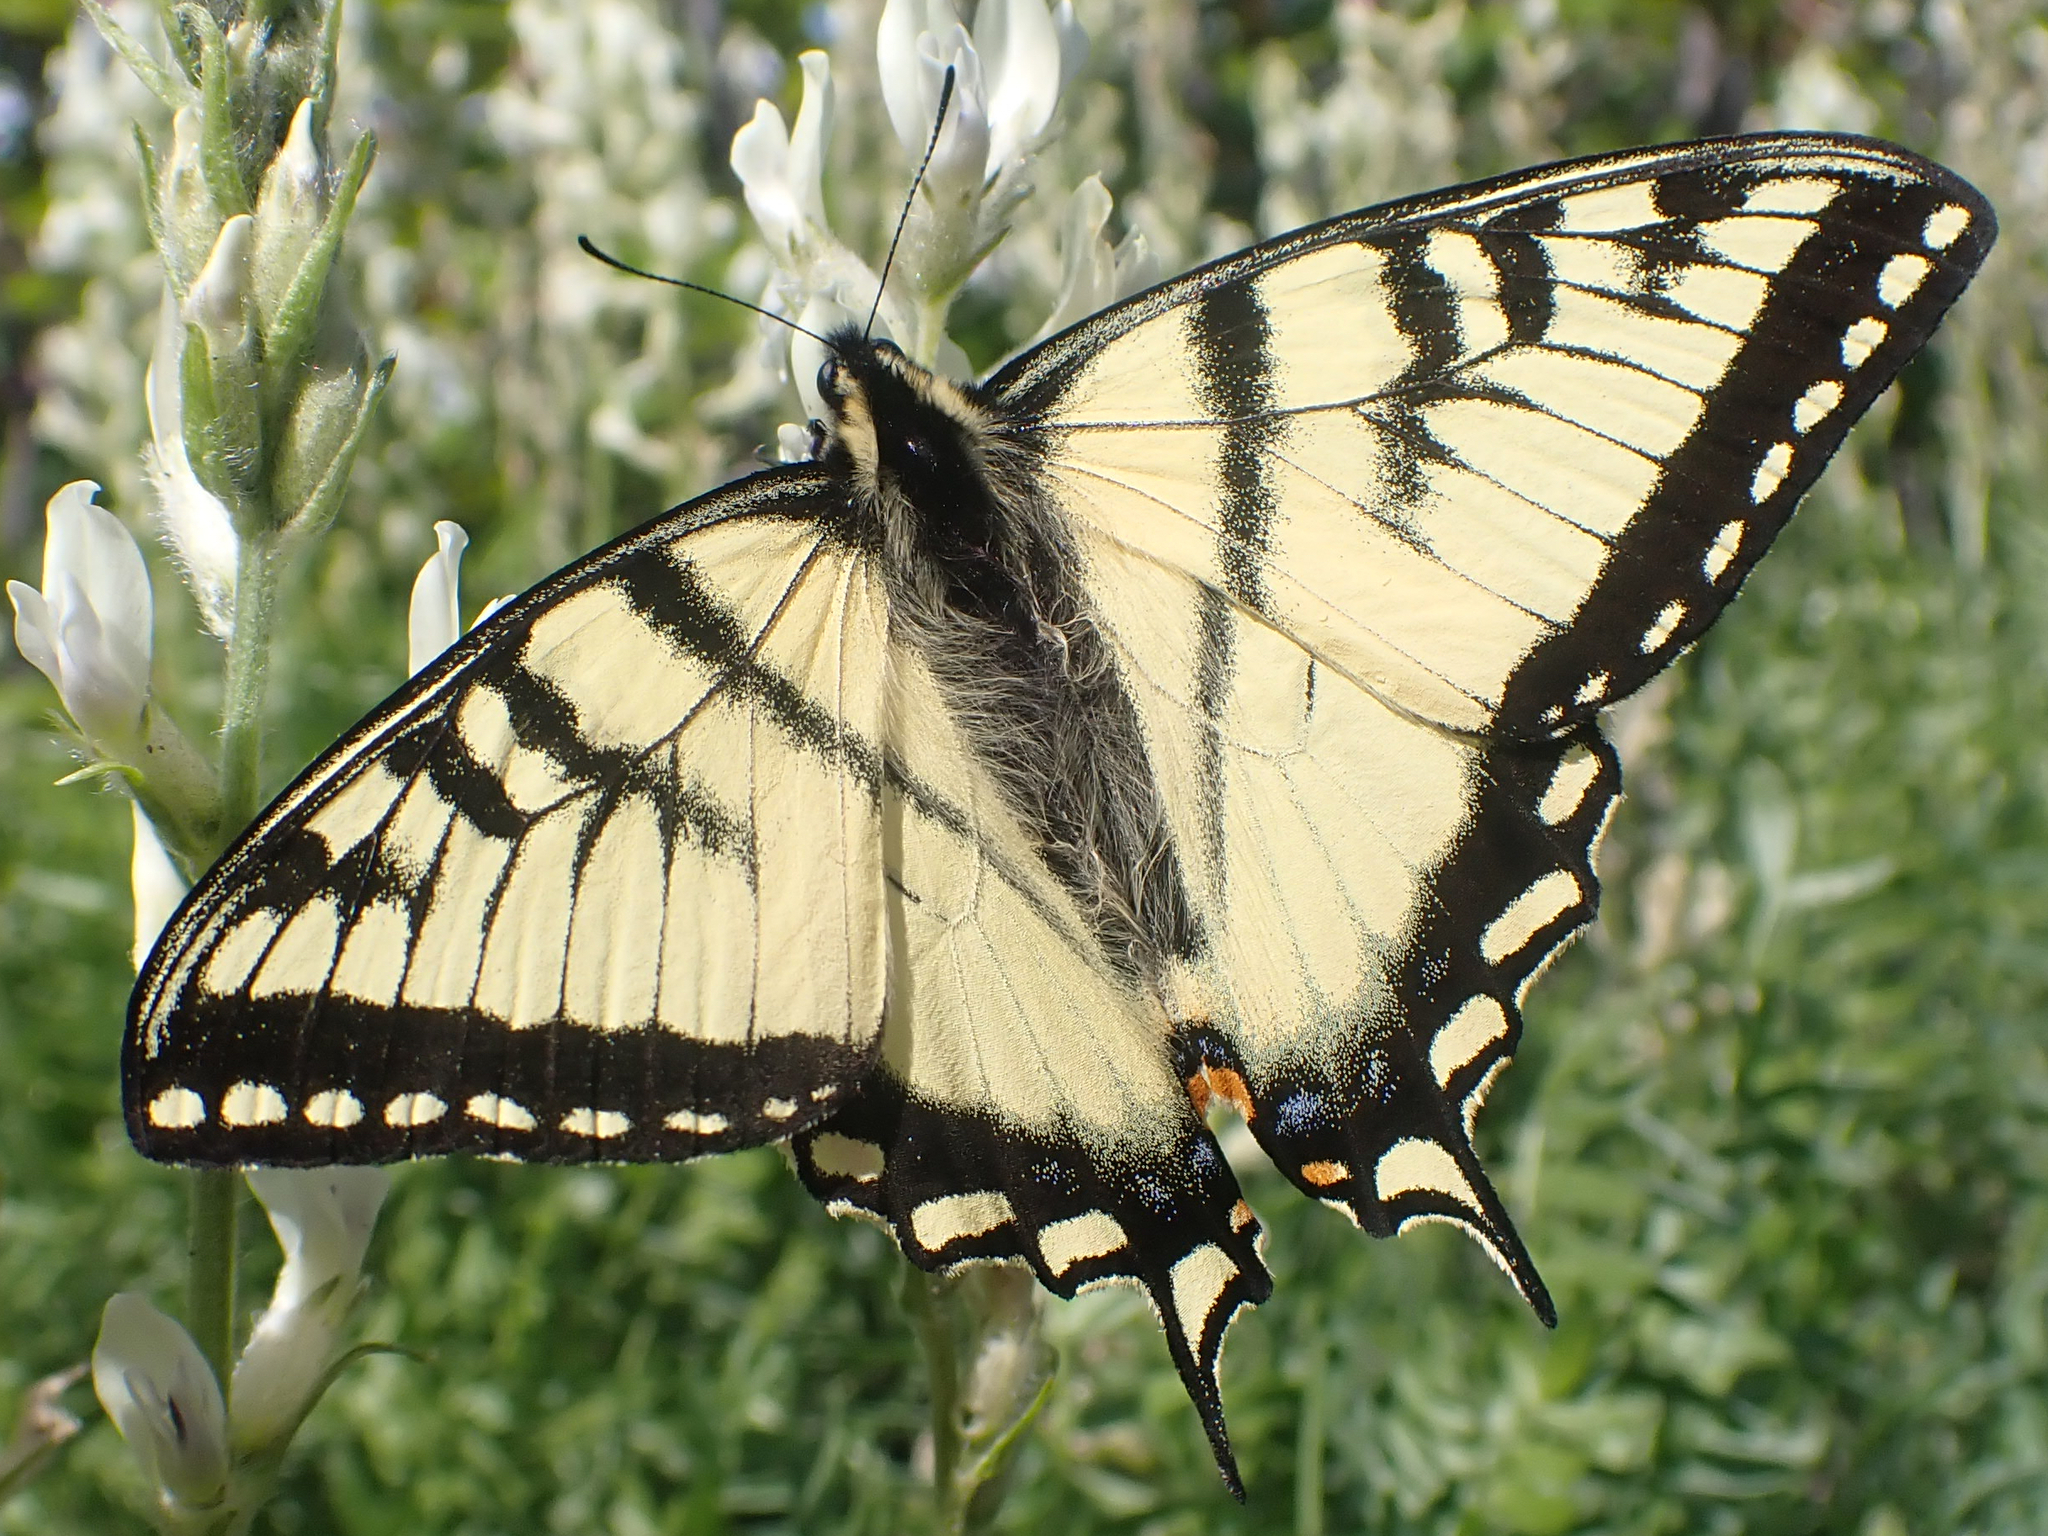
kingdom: Animalia
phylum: Arthropoda
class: Insecta
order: Lepidoptera
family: Papilionidae
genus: Papilio
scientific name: Papilio canadensis
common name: Canadian tiger swallowtail
